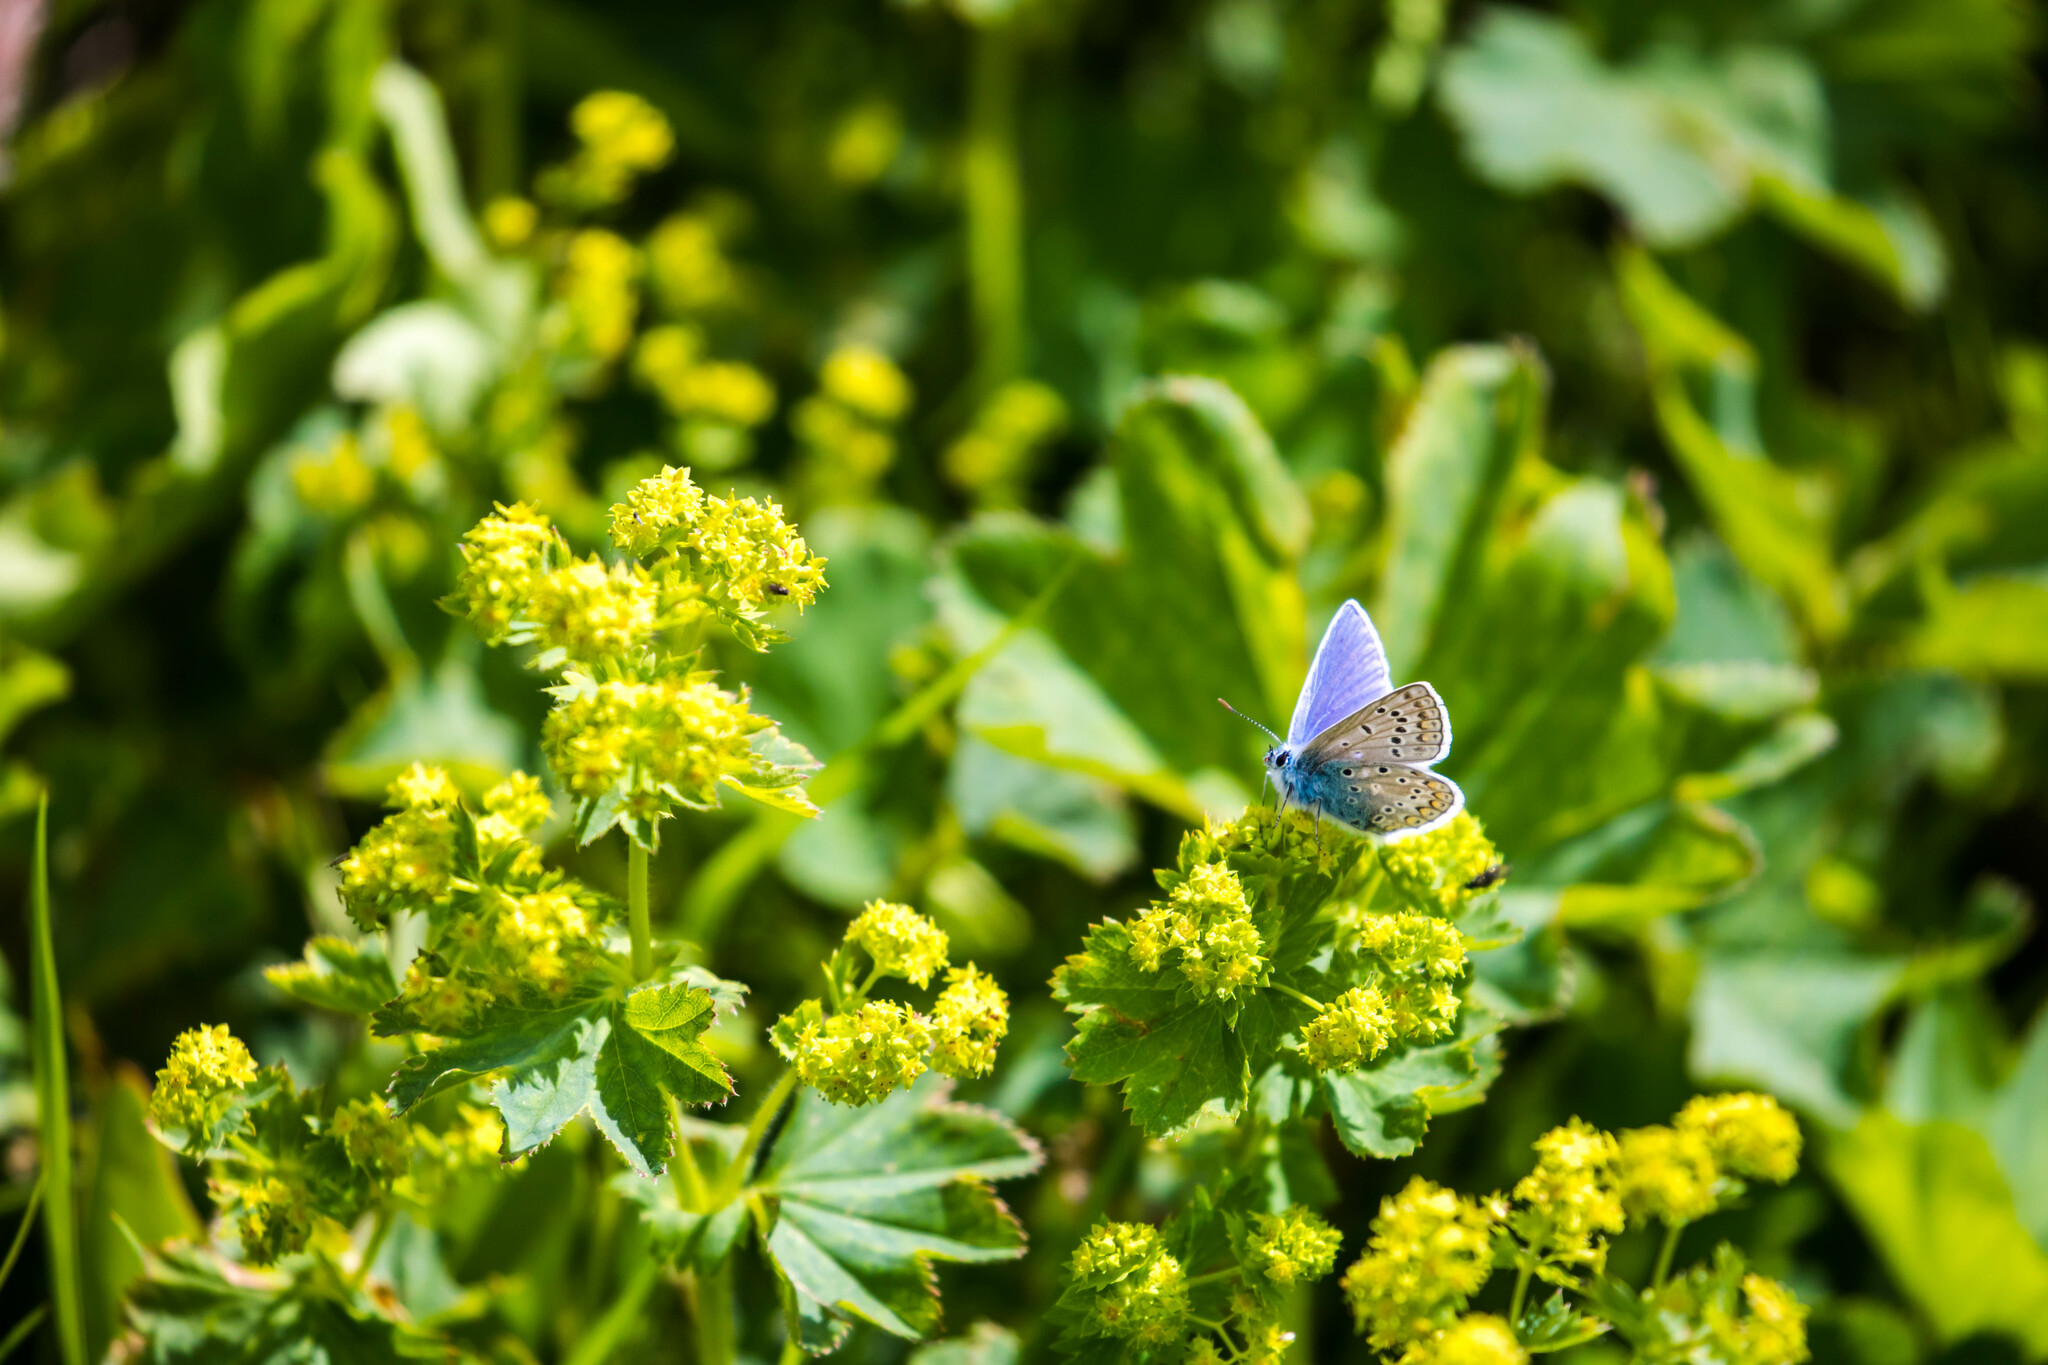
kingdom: Animalia
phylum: Arthropoda
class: Insecta
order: Lepidoptera
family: Lycaenidae
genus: Polyommatus
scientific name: Polyommatus icarus
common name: Common blue
